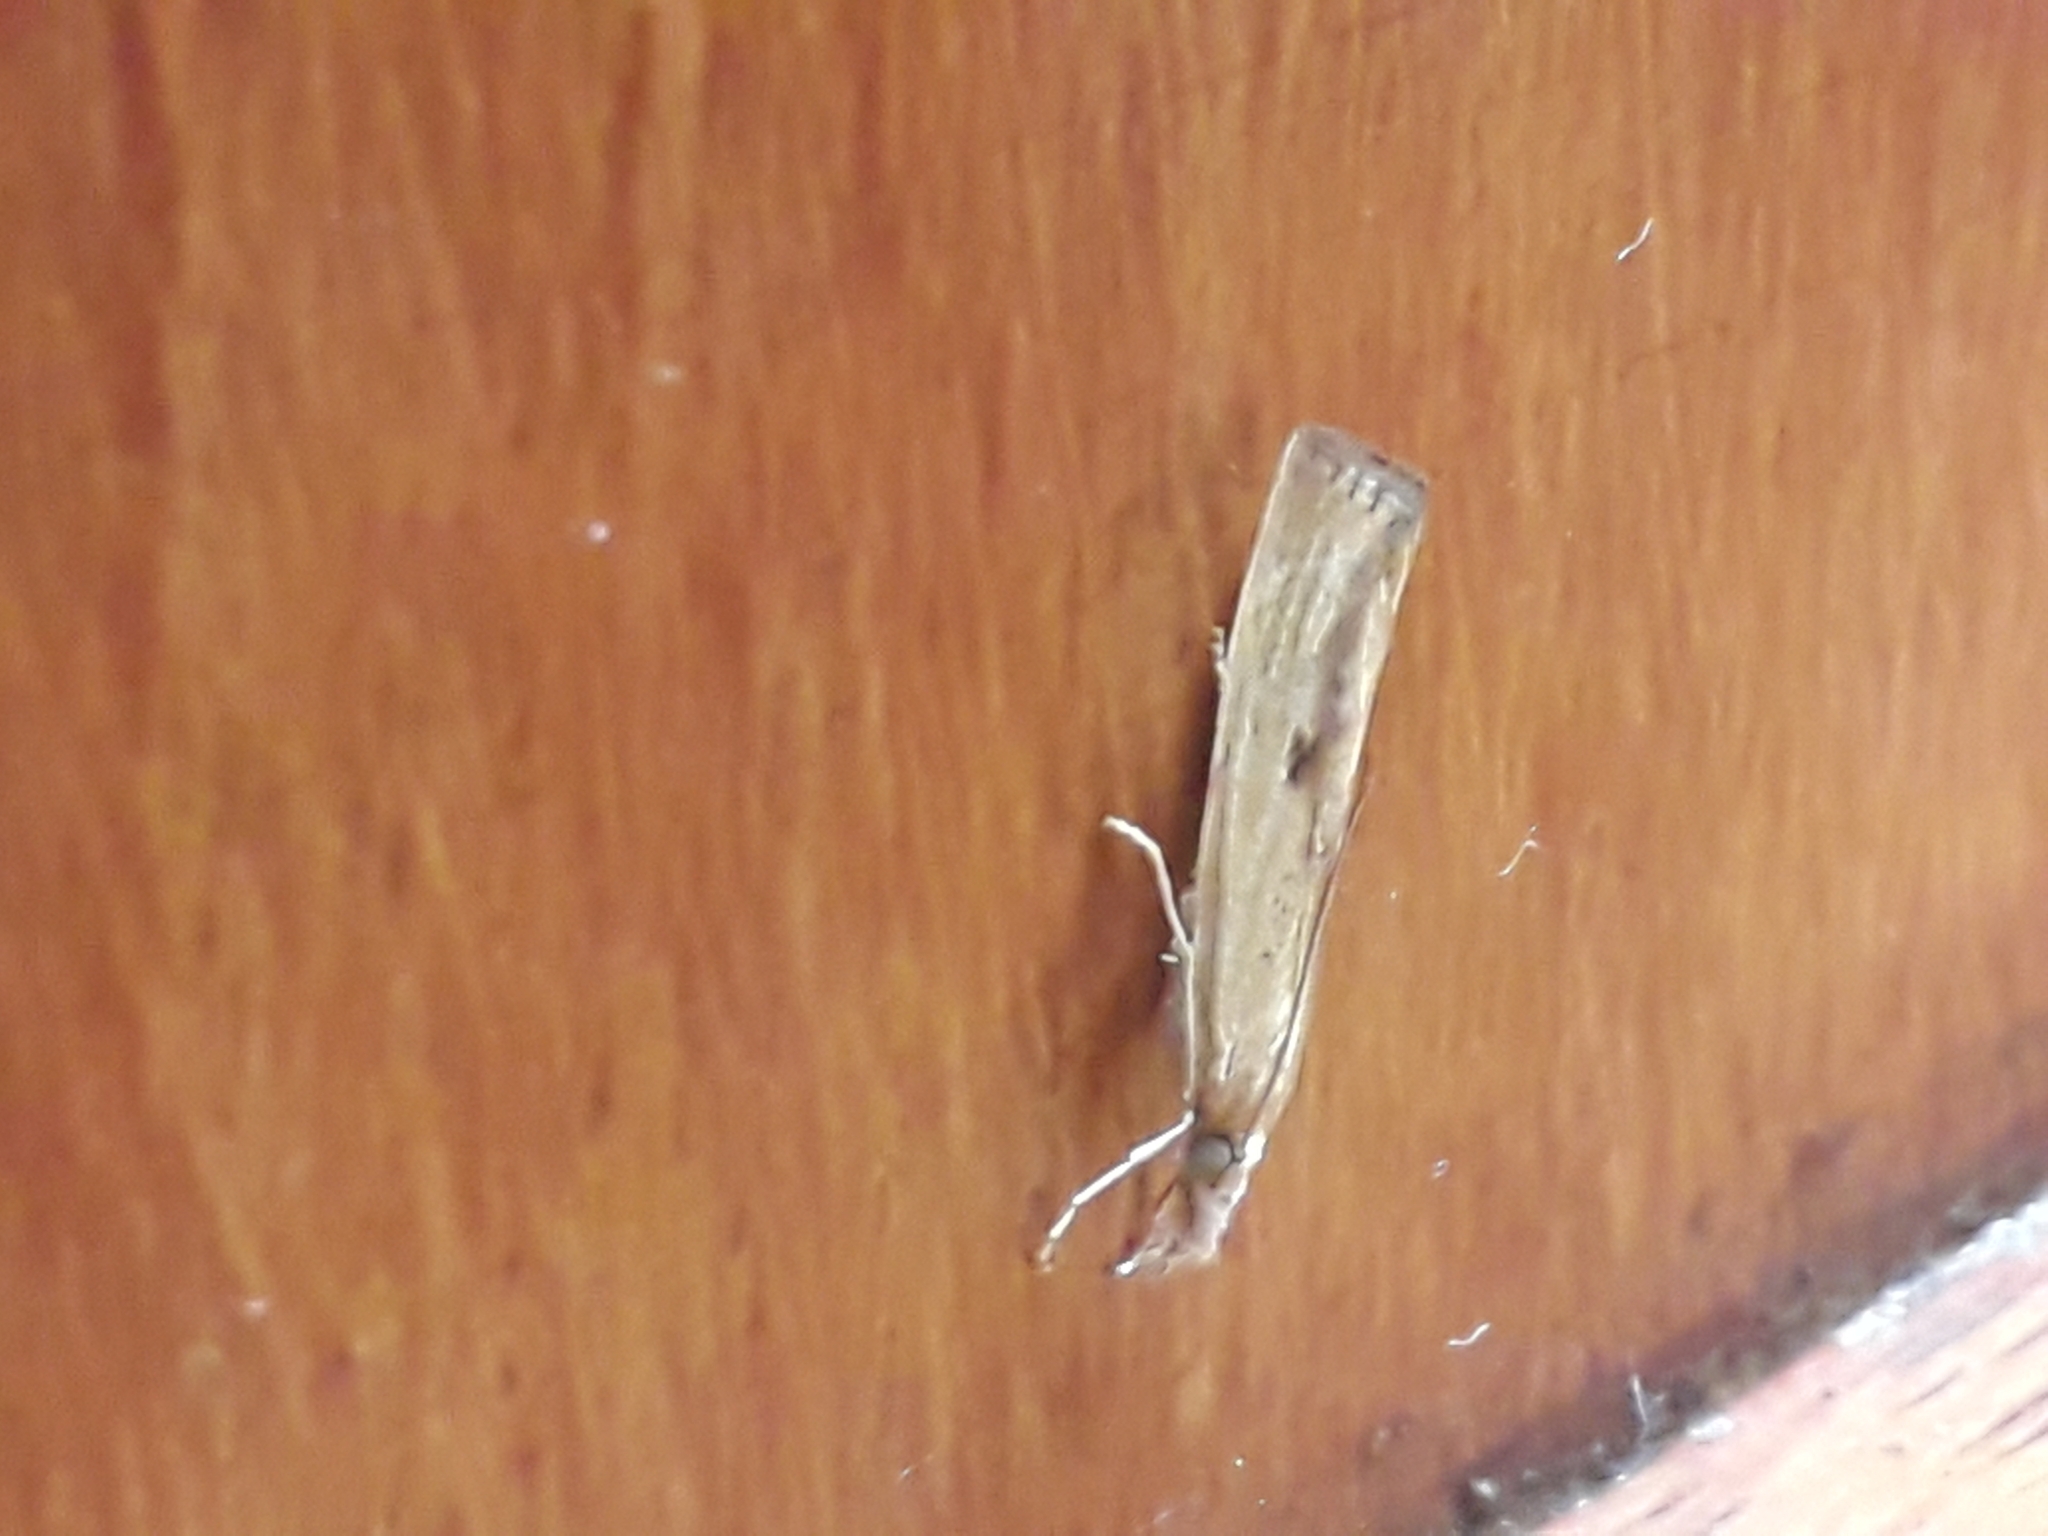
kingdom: Animalia
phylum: Arthropoda
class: Insecta
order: Lepidoptera
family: Crambidae
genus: Agriphila
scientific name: Agriphila inquinatella
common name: Barred grass-veneer
